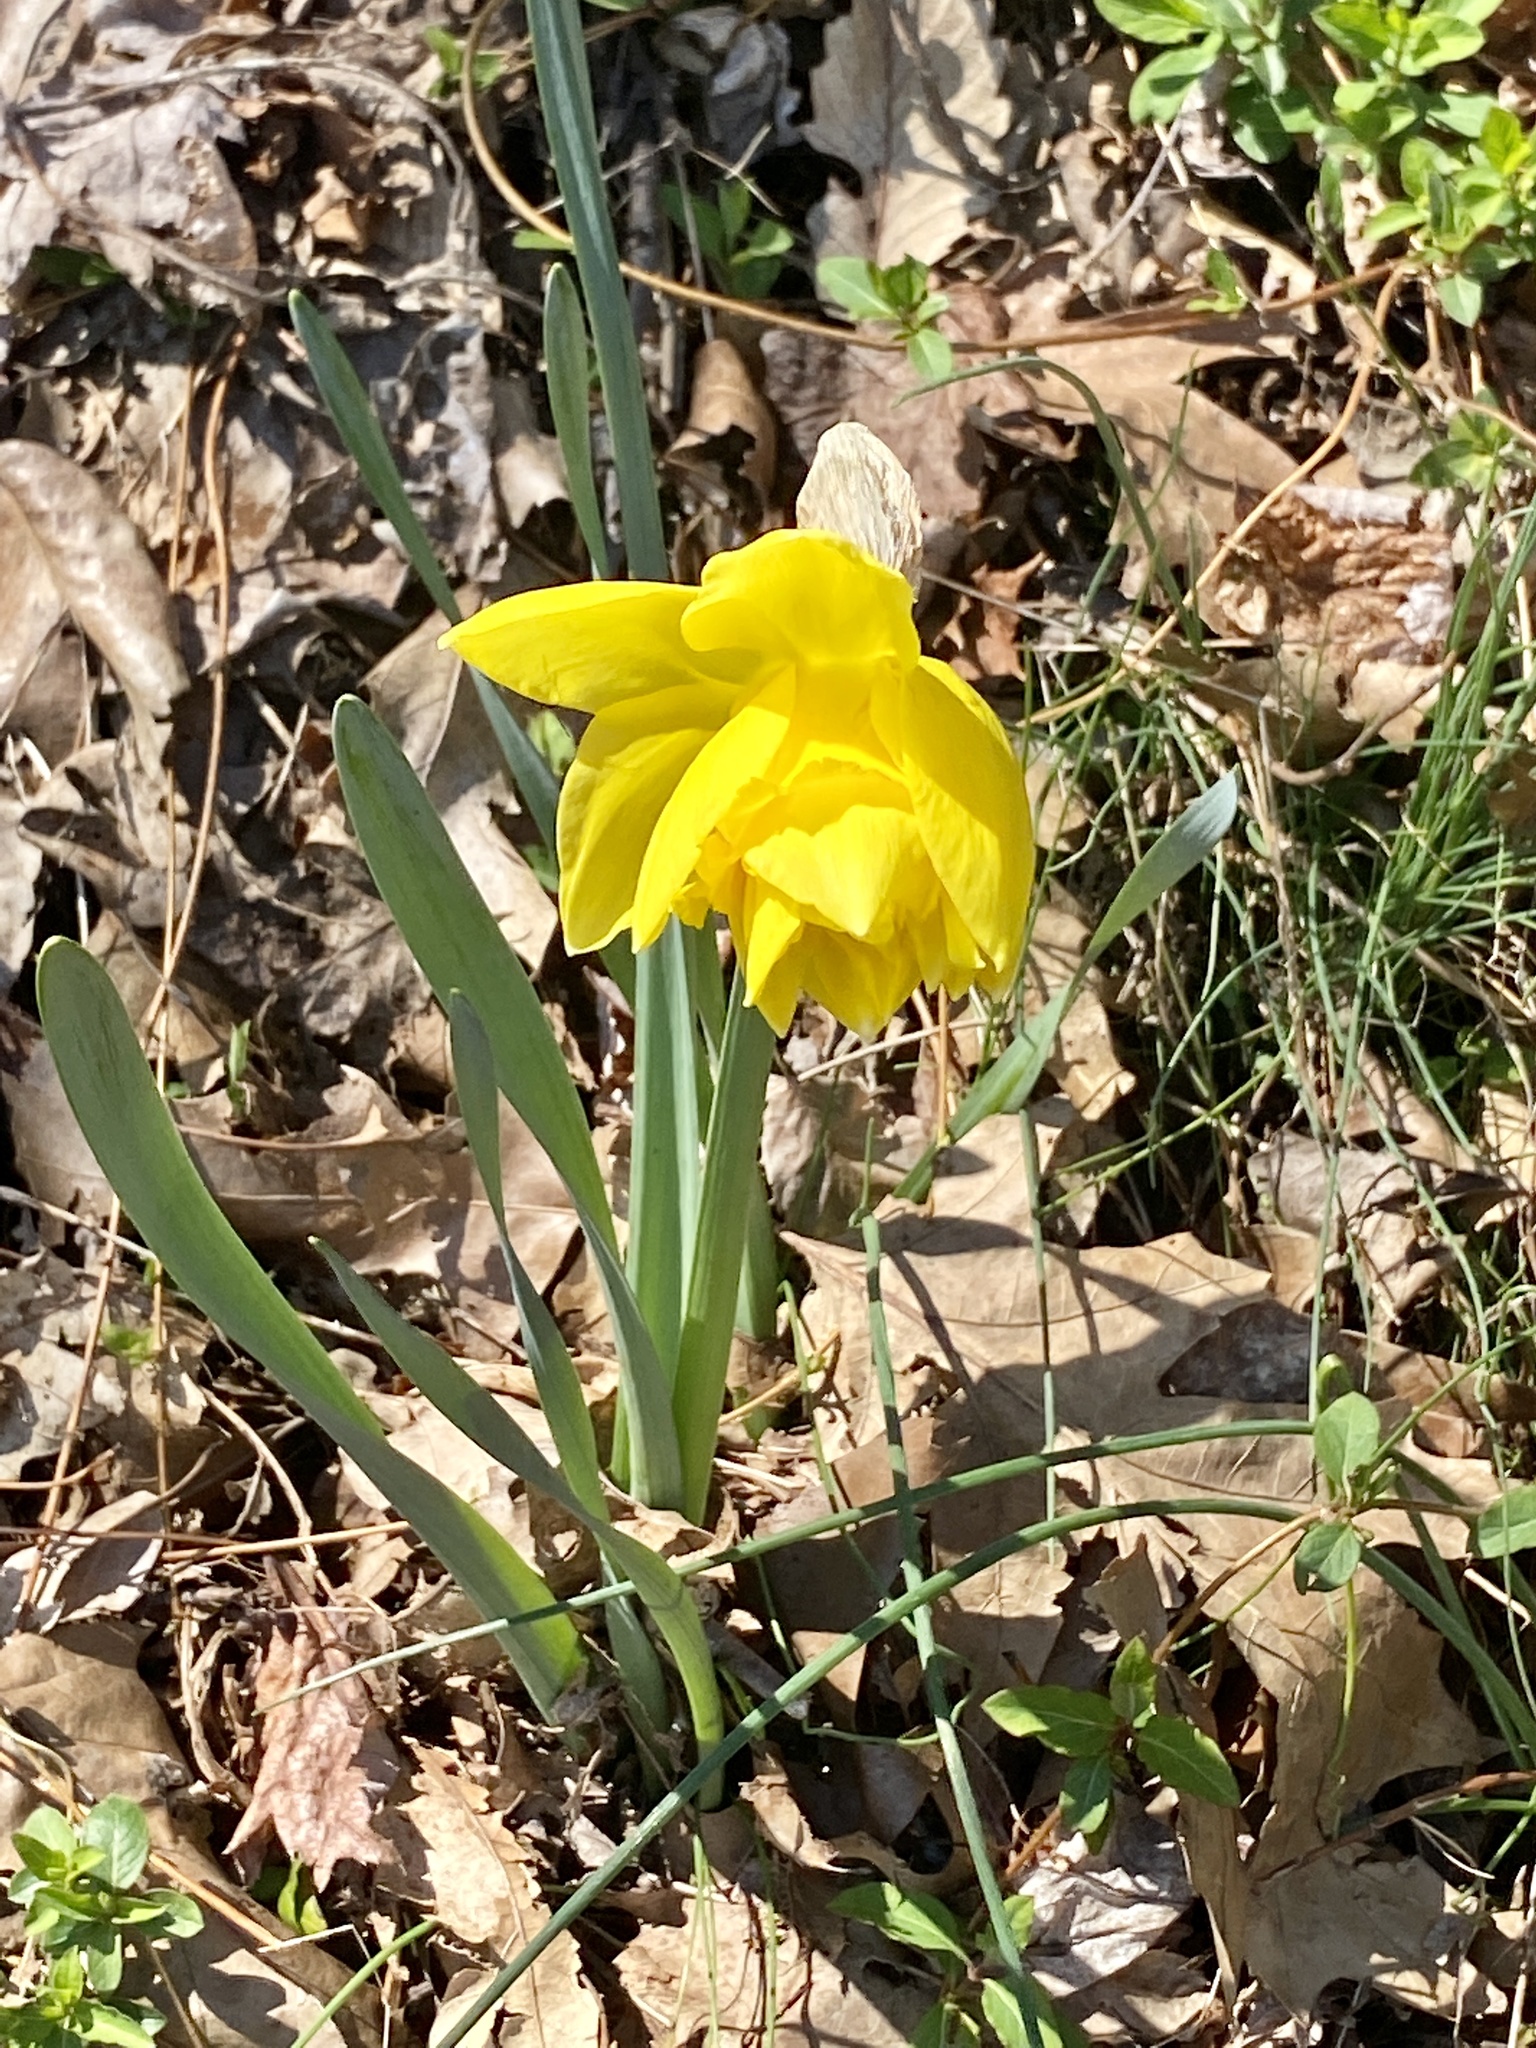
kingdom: Plantae
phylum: Tracheophyta
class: Liliopsida
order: Asparagales
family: Amaryllidaceae
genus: Narcissus
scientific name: Narcissus
